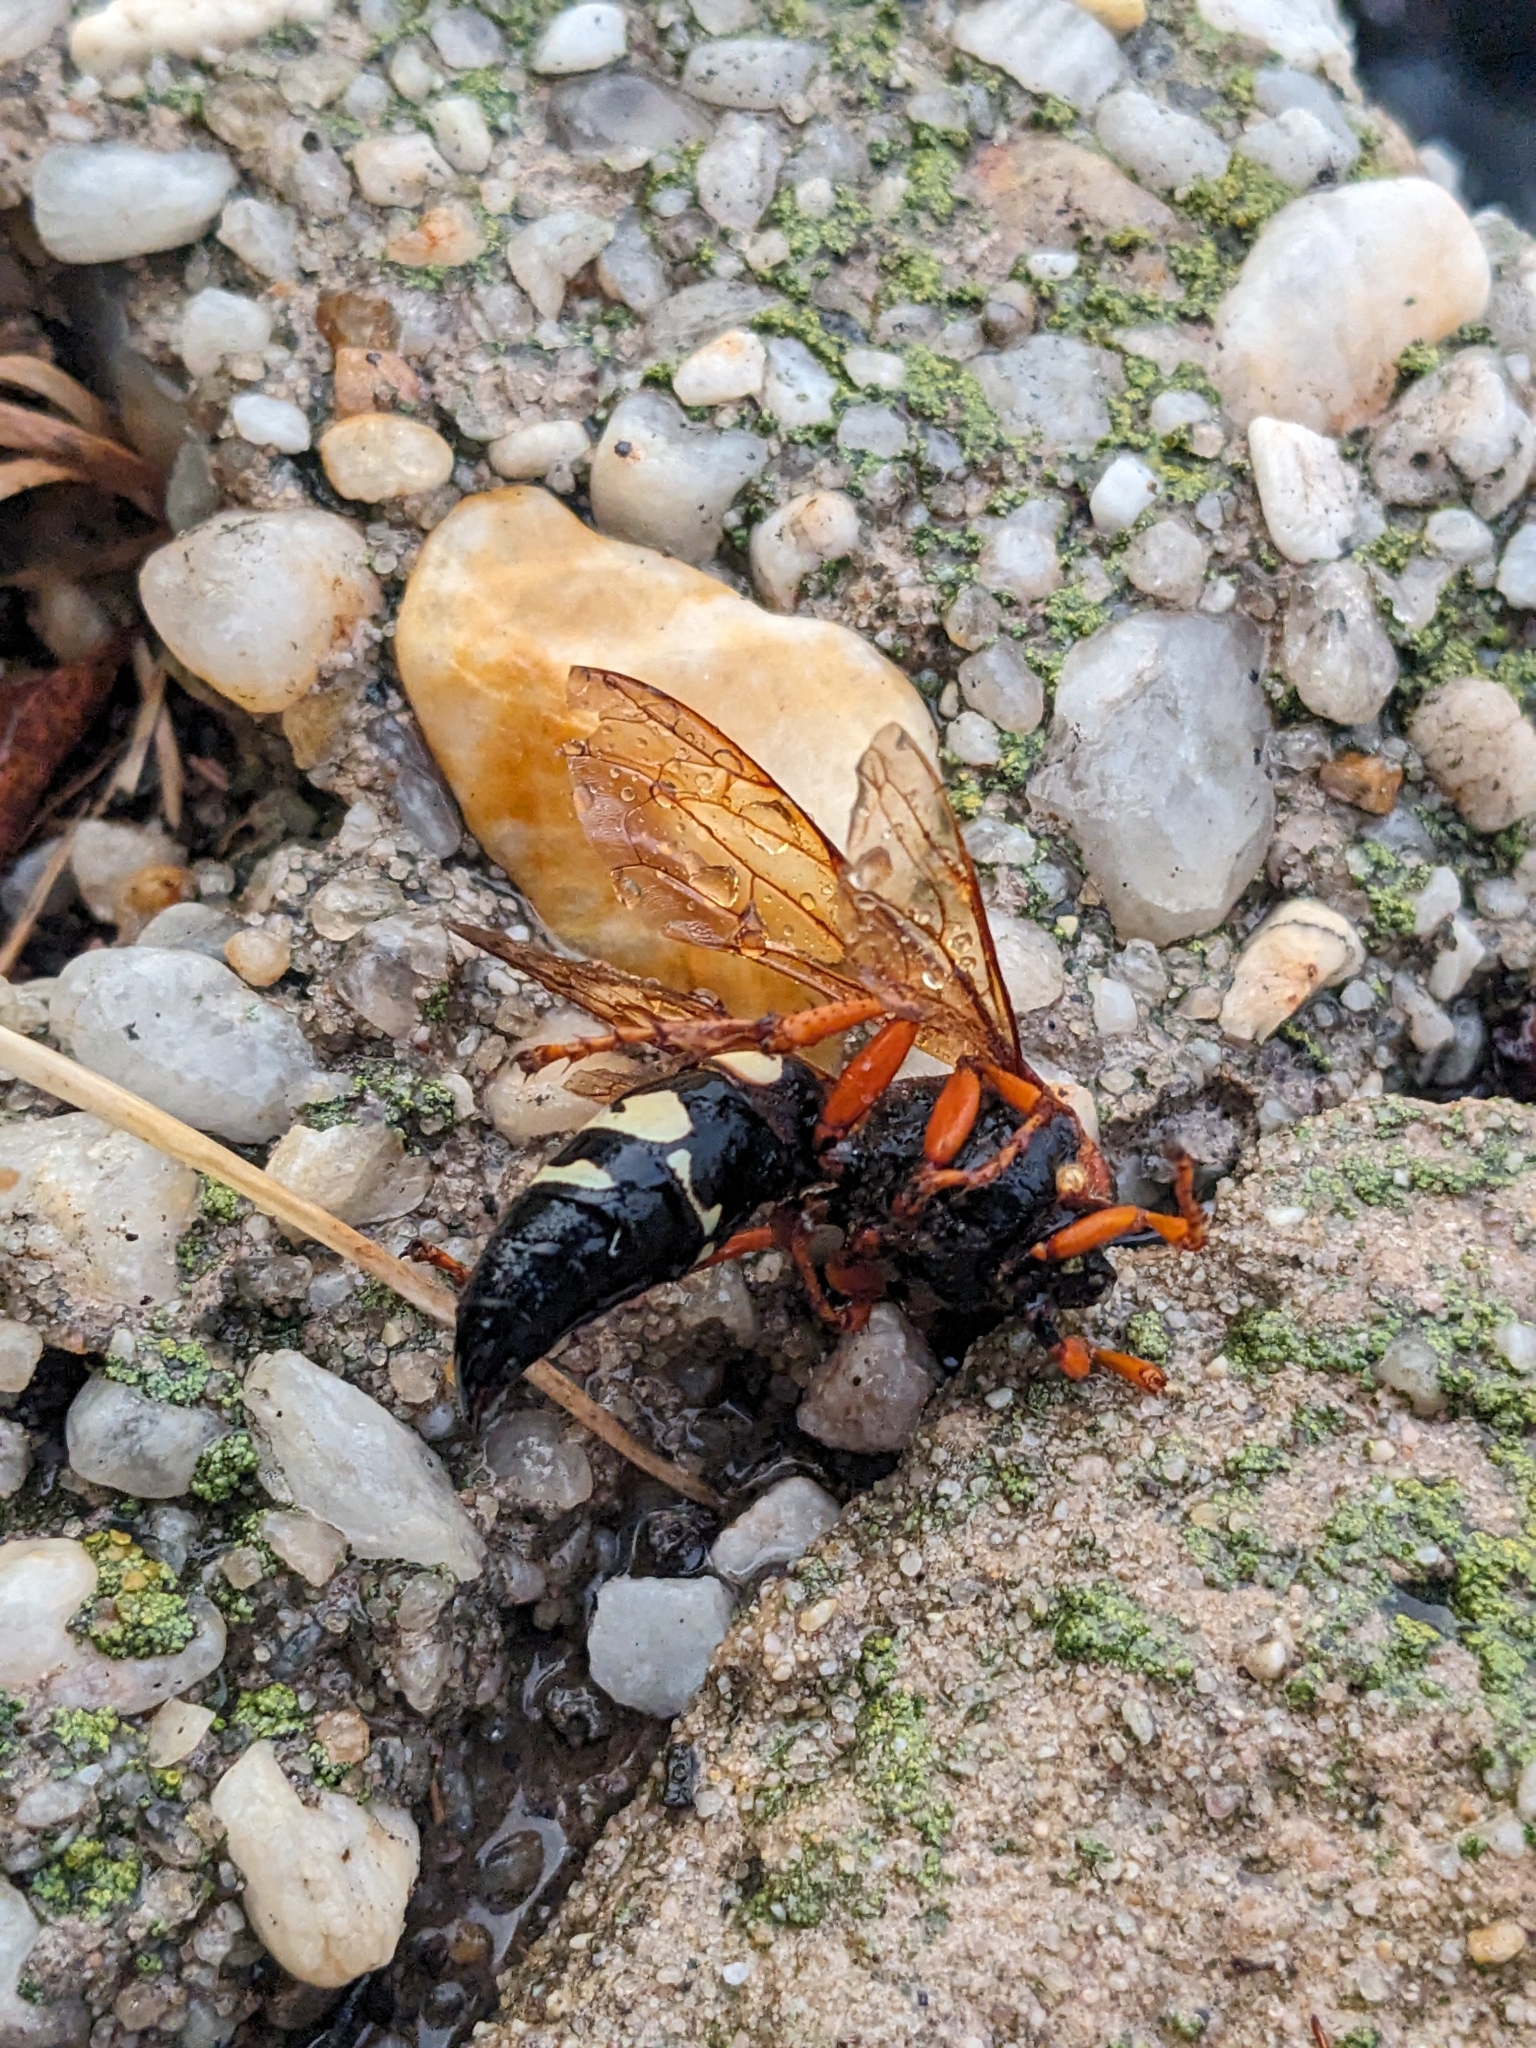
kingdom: Animalia
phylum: Arthropoda
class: Insecta
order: Hymenoptera
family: Crabronidae
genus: Sphecius
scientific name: Sphecius speciosus
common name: Cicada killer
